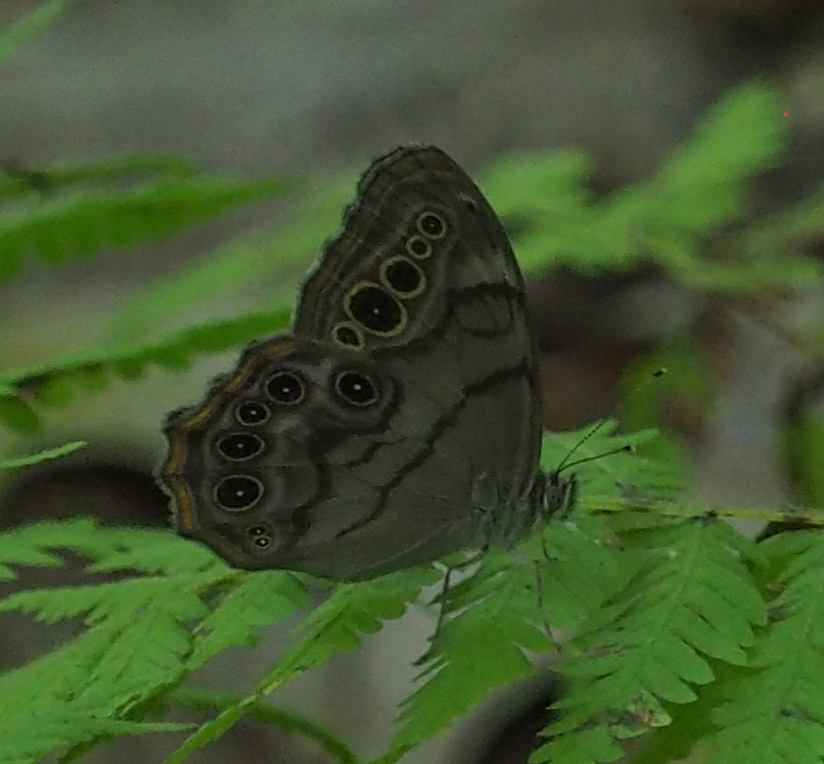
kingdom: Animalia
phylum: Arthropoda
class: Insecta
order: Lepidoptera
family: Nymphalidae
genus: Lethe
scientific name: Lethe anthedon
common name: Northern pearly-eye
